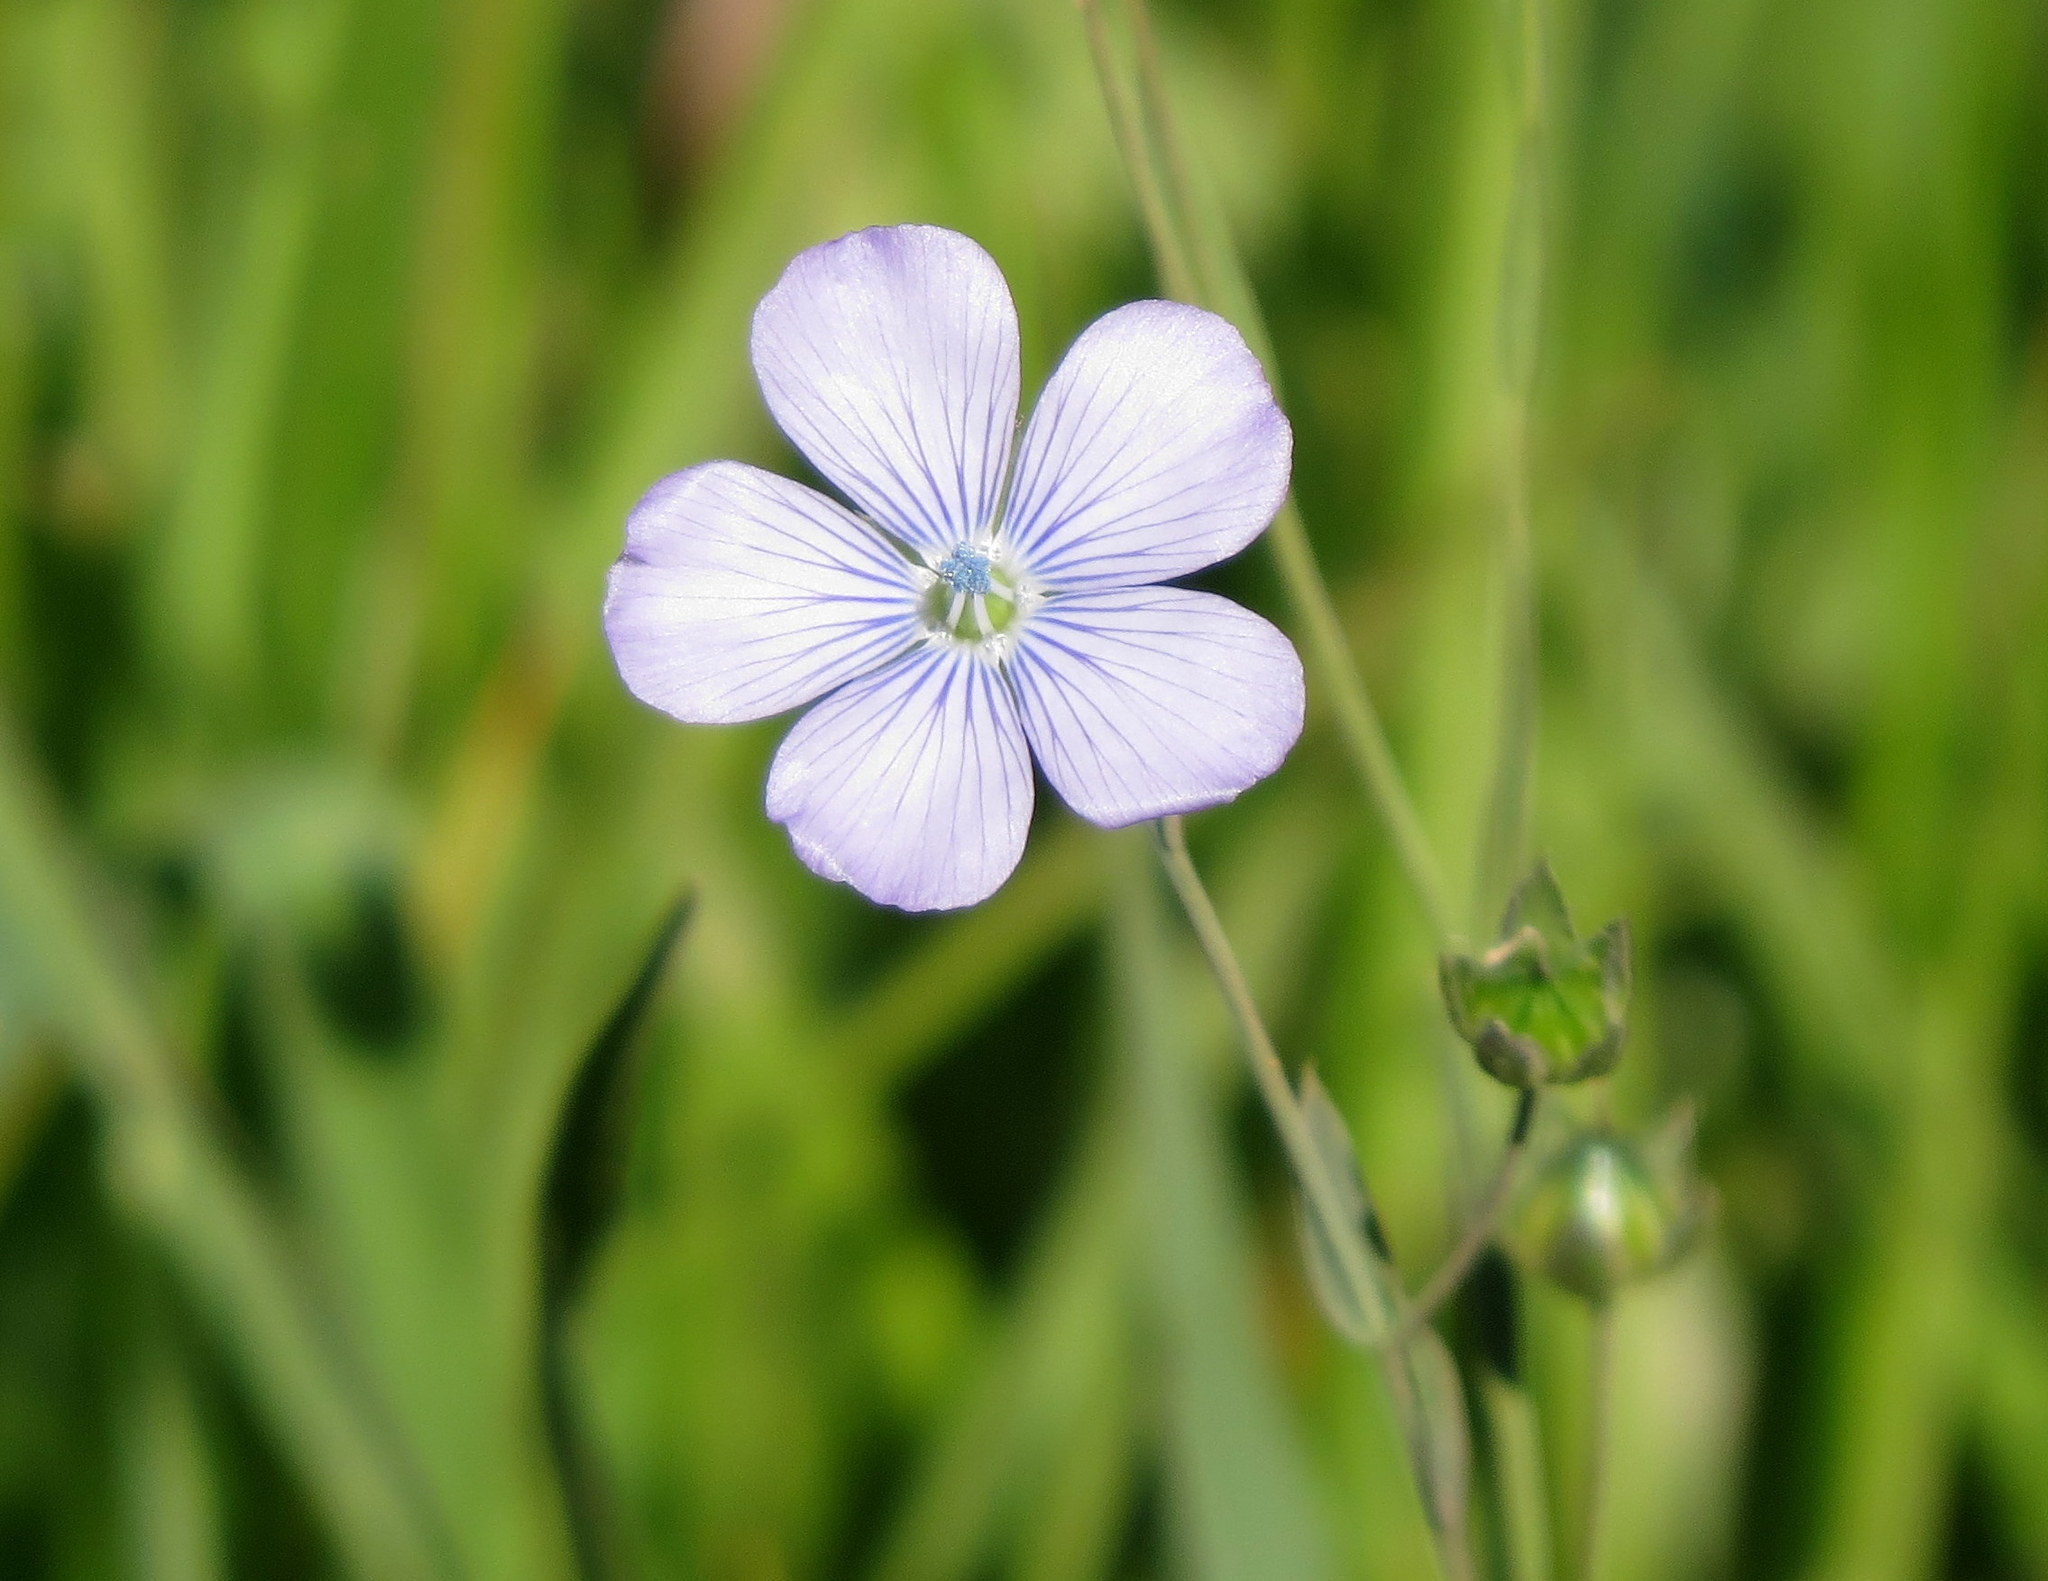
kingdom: Plantae
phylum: Tracheophyta
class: Magnoliopsida
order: Malpighiales
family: Linaceae
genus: Linum
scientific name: Linum bienne
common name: Pale flax
